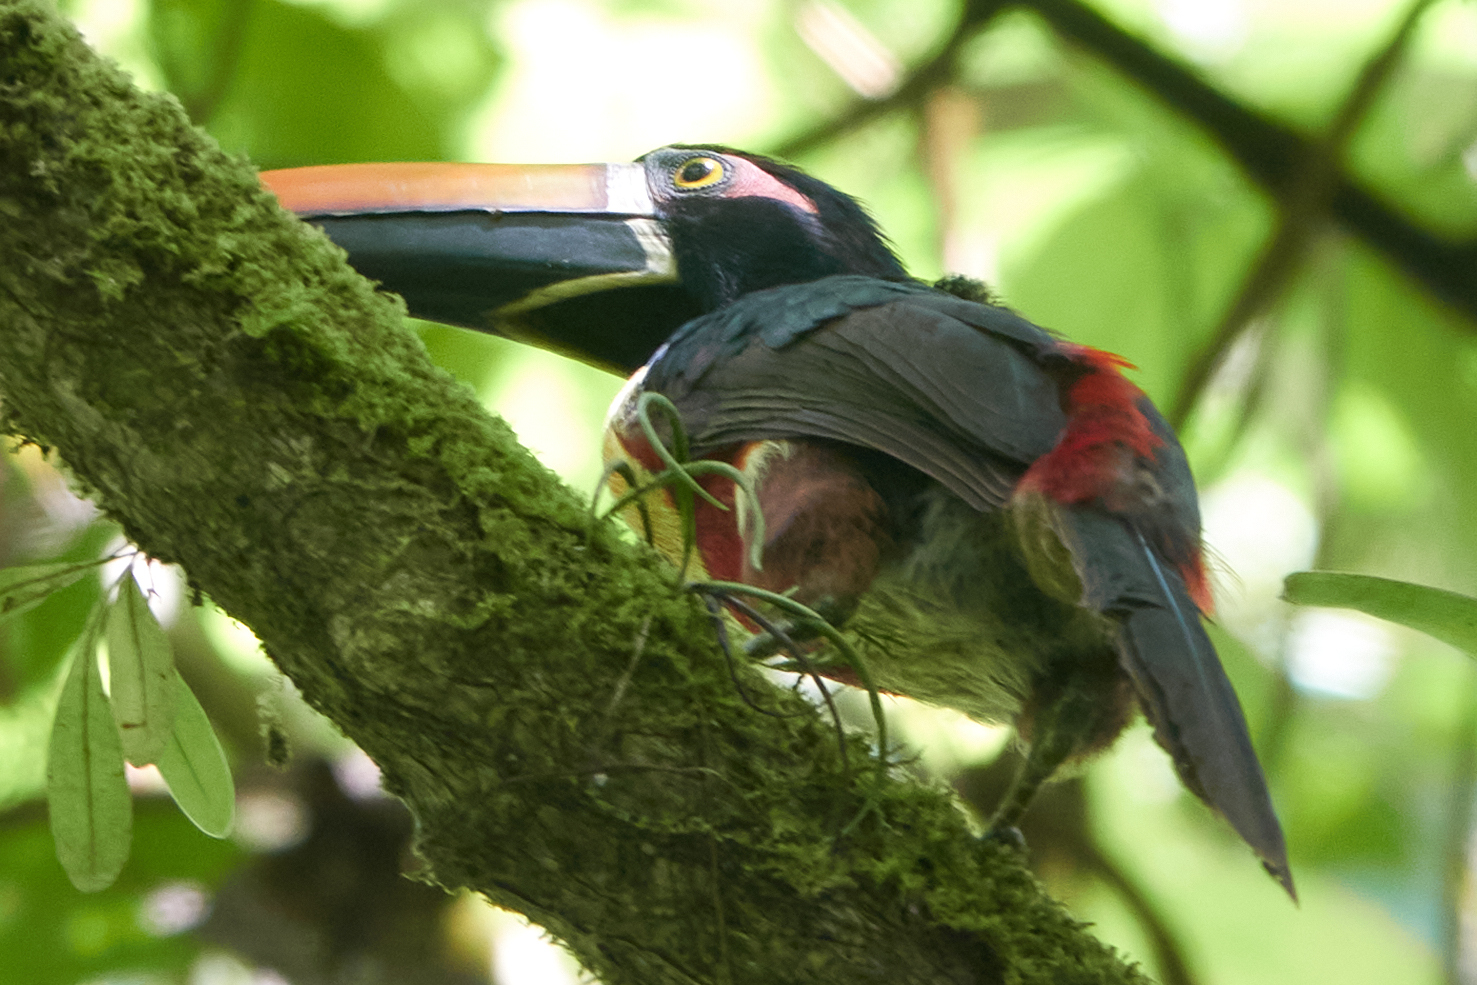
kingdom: Animalia
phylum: Chordata
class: Aves
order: Piciformes
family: Ramphastidae
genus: Pteroglossus
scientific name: Pteroglossus frantzii
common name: Fiery-billed aracari
